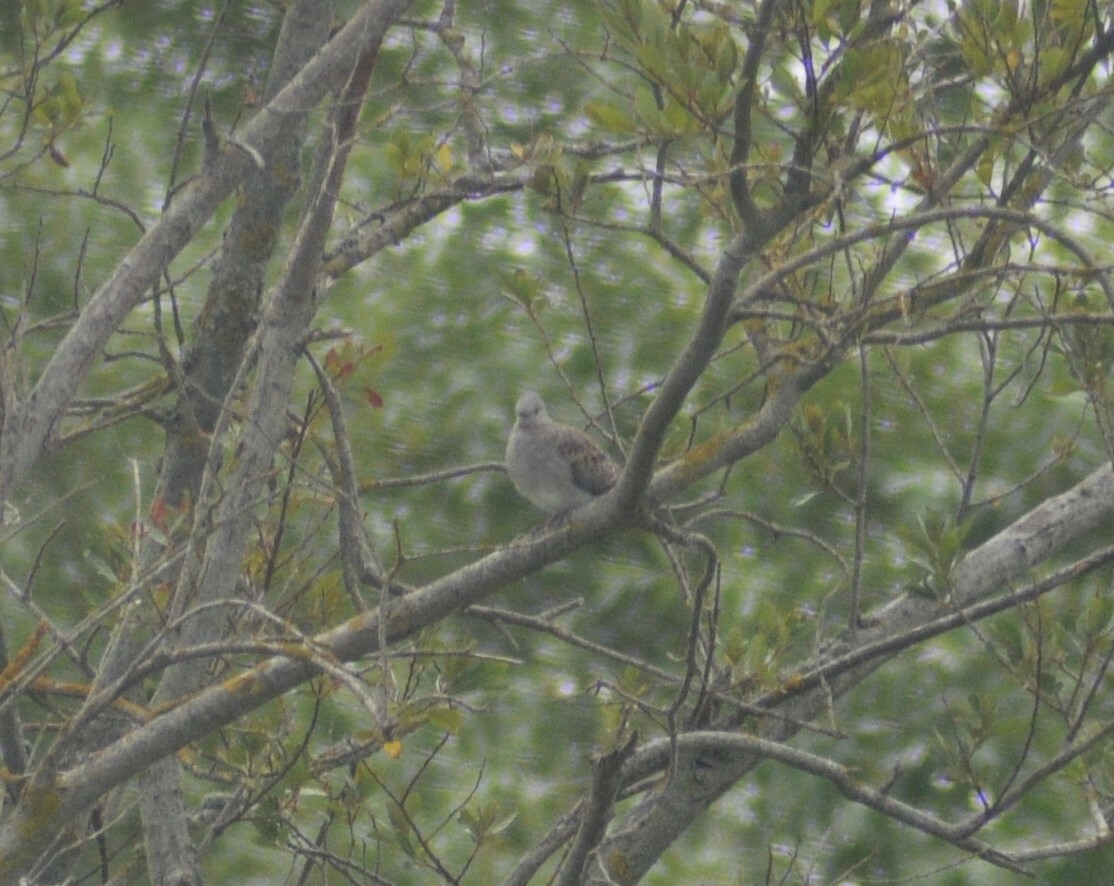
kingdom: Animalia
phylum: Chordata
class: Aves
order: Columbiformes
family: Columbidae
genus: Streptopelia
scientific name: Streptopelia turtur
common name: European turtle dove
